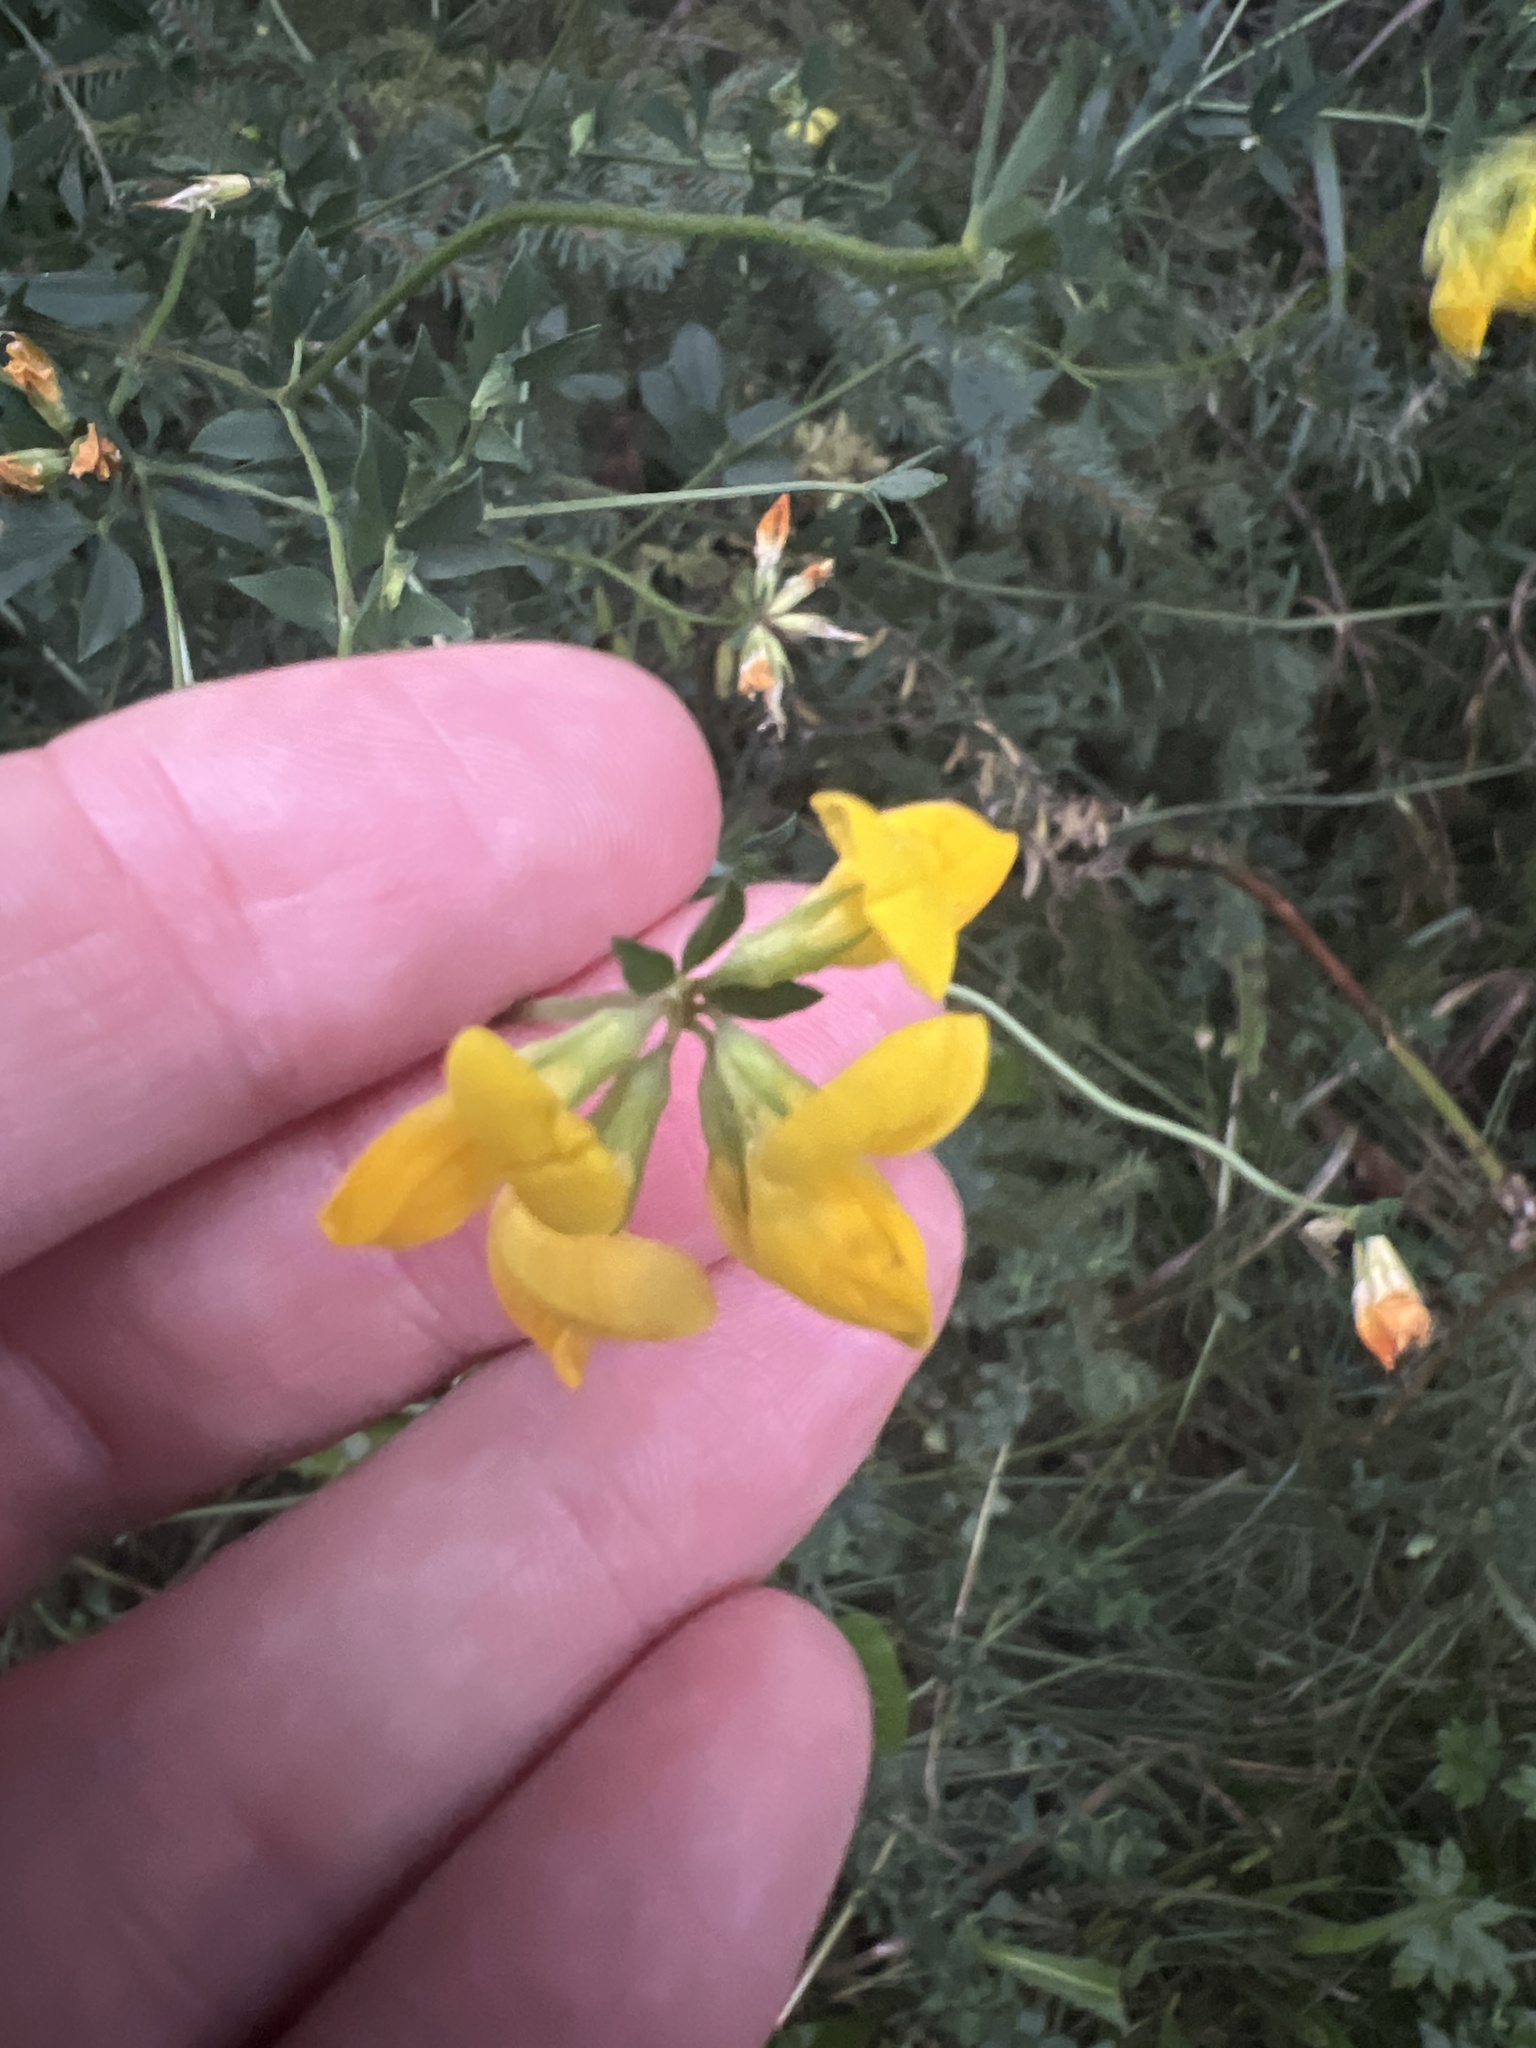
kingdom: Plantae
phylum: Tracheophyta
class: Magnoliopsida
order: Fabales
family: Fabaceae
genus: Lotus
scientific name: Lotus corniculatus
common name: Common bird's-foot-trefoil
